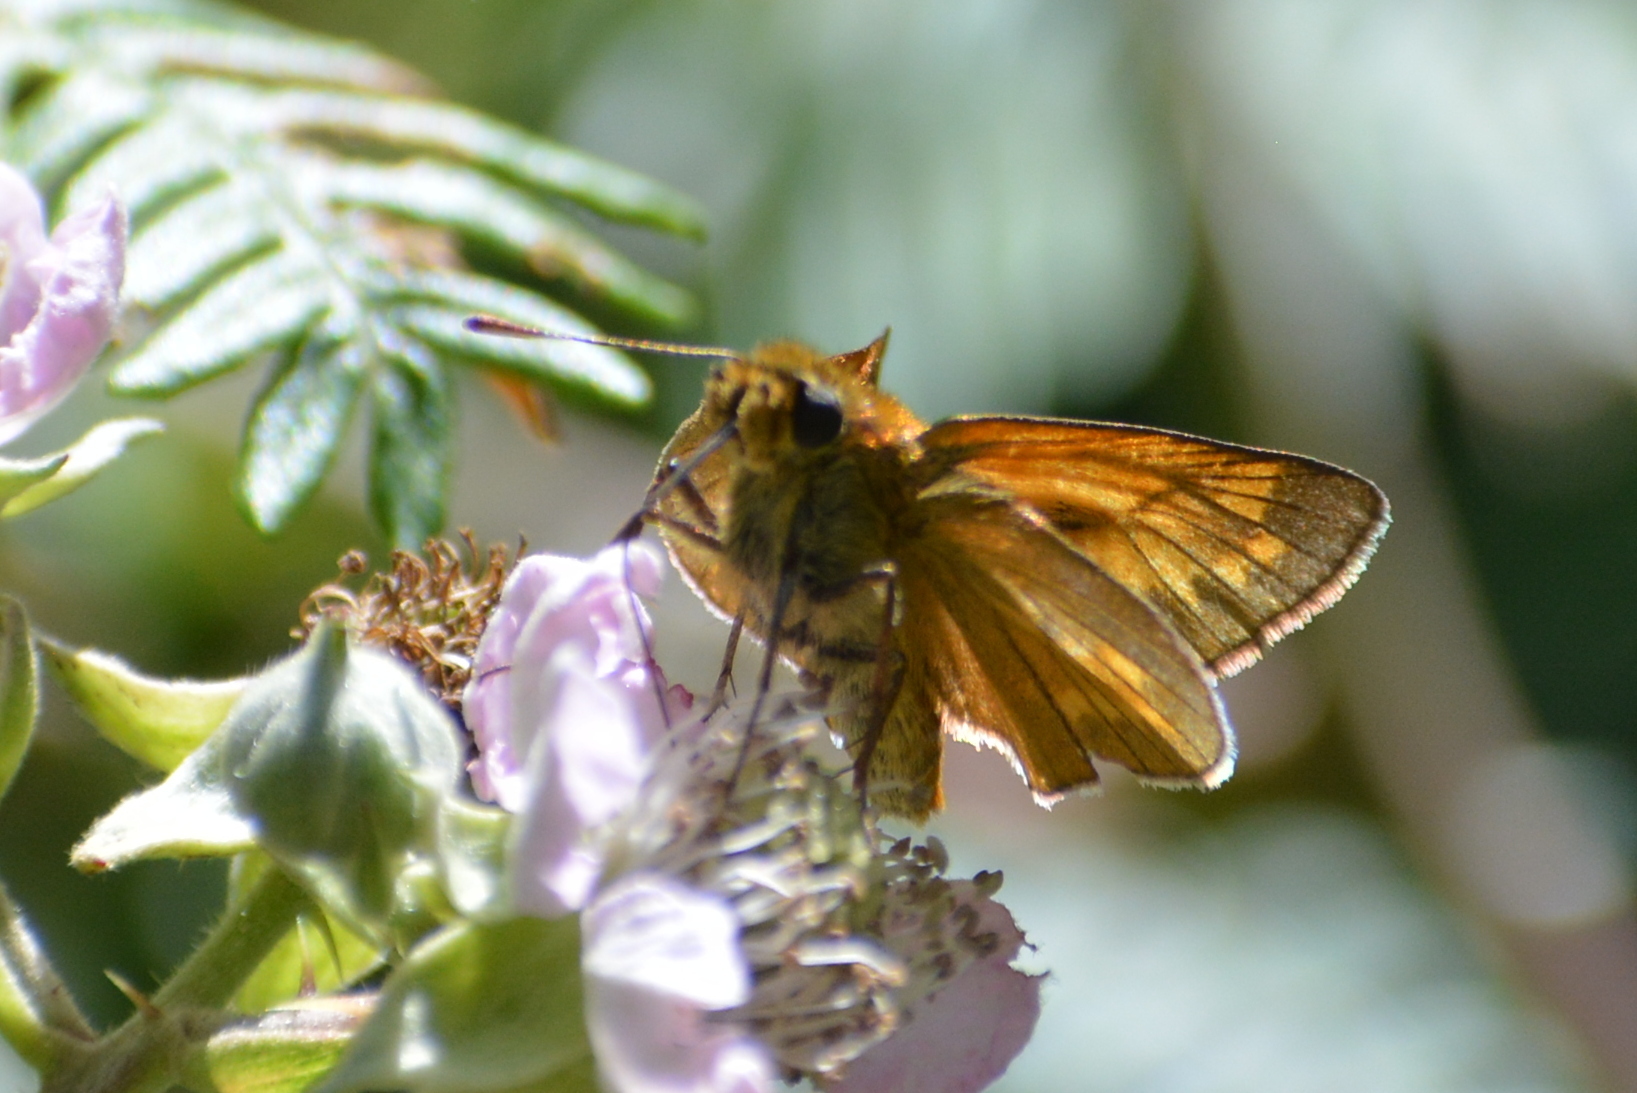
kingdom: Animalia
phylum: Arthropoda
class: Insecta
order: Lepidoptera
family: Hesperiidae
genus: Ochlodes
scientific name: Ochlodes venata
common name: Large skipper
